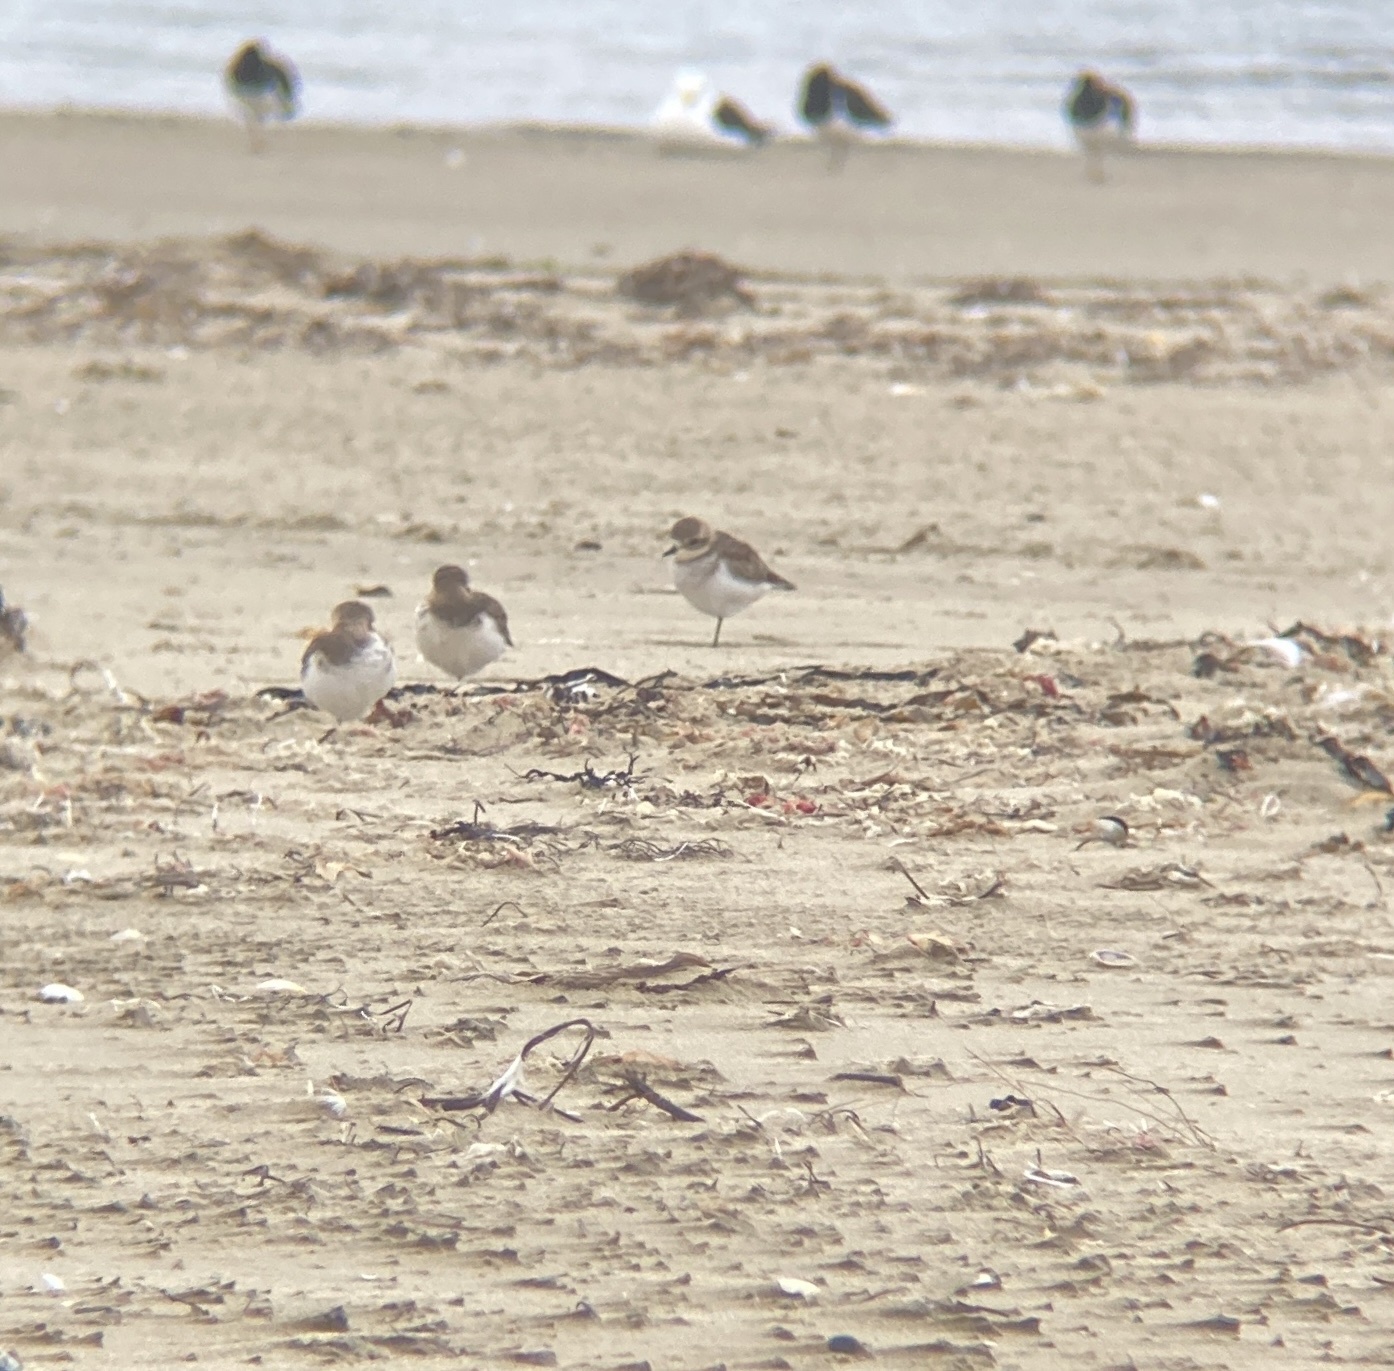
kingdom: Animalia
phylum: Chordata
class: Aves
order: Charadriiformes
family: Charadriidae
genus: Anarhynchus
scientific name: Anarhynchus
